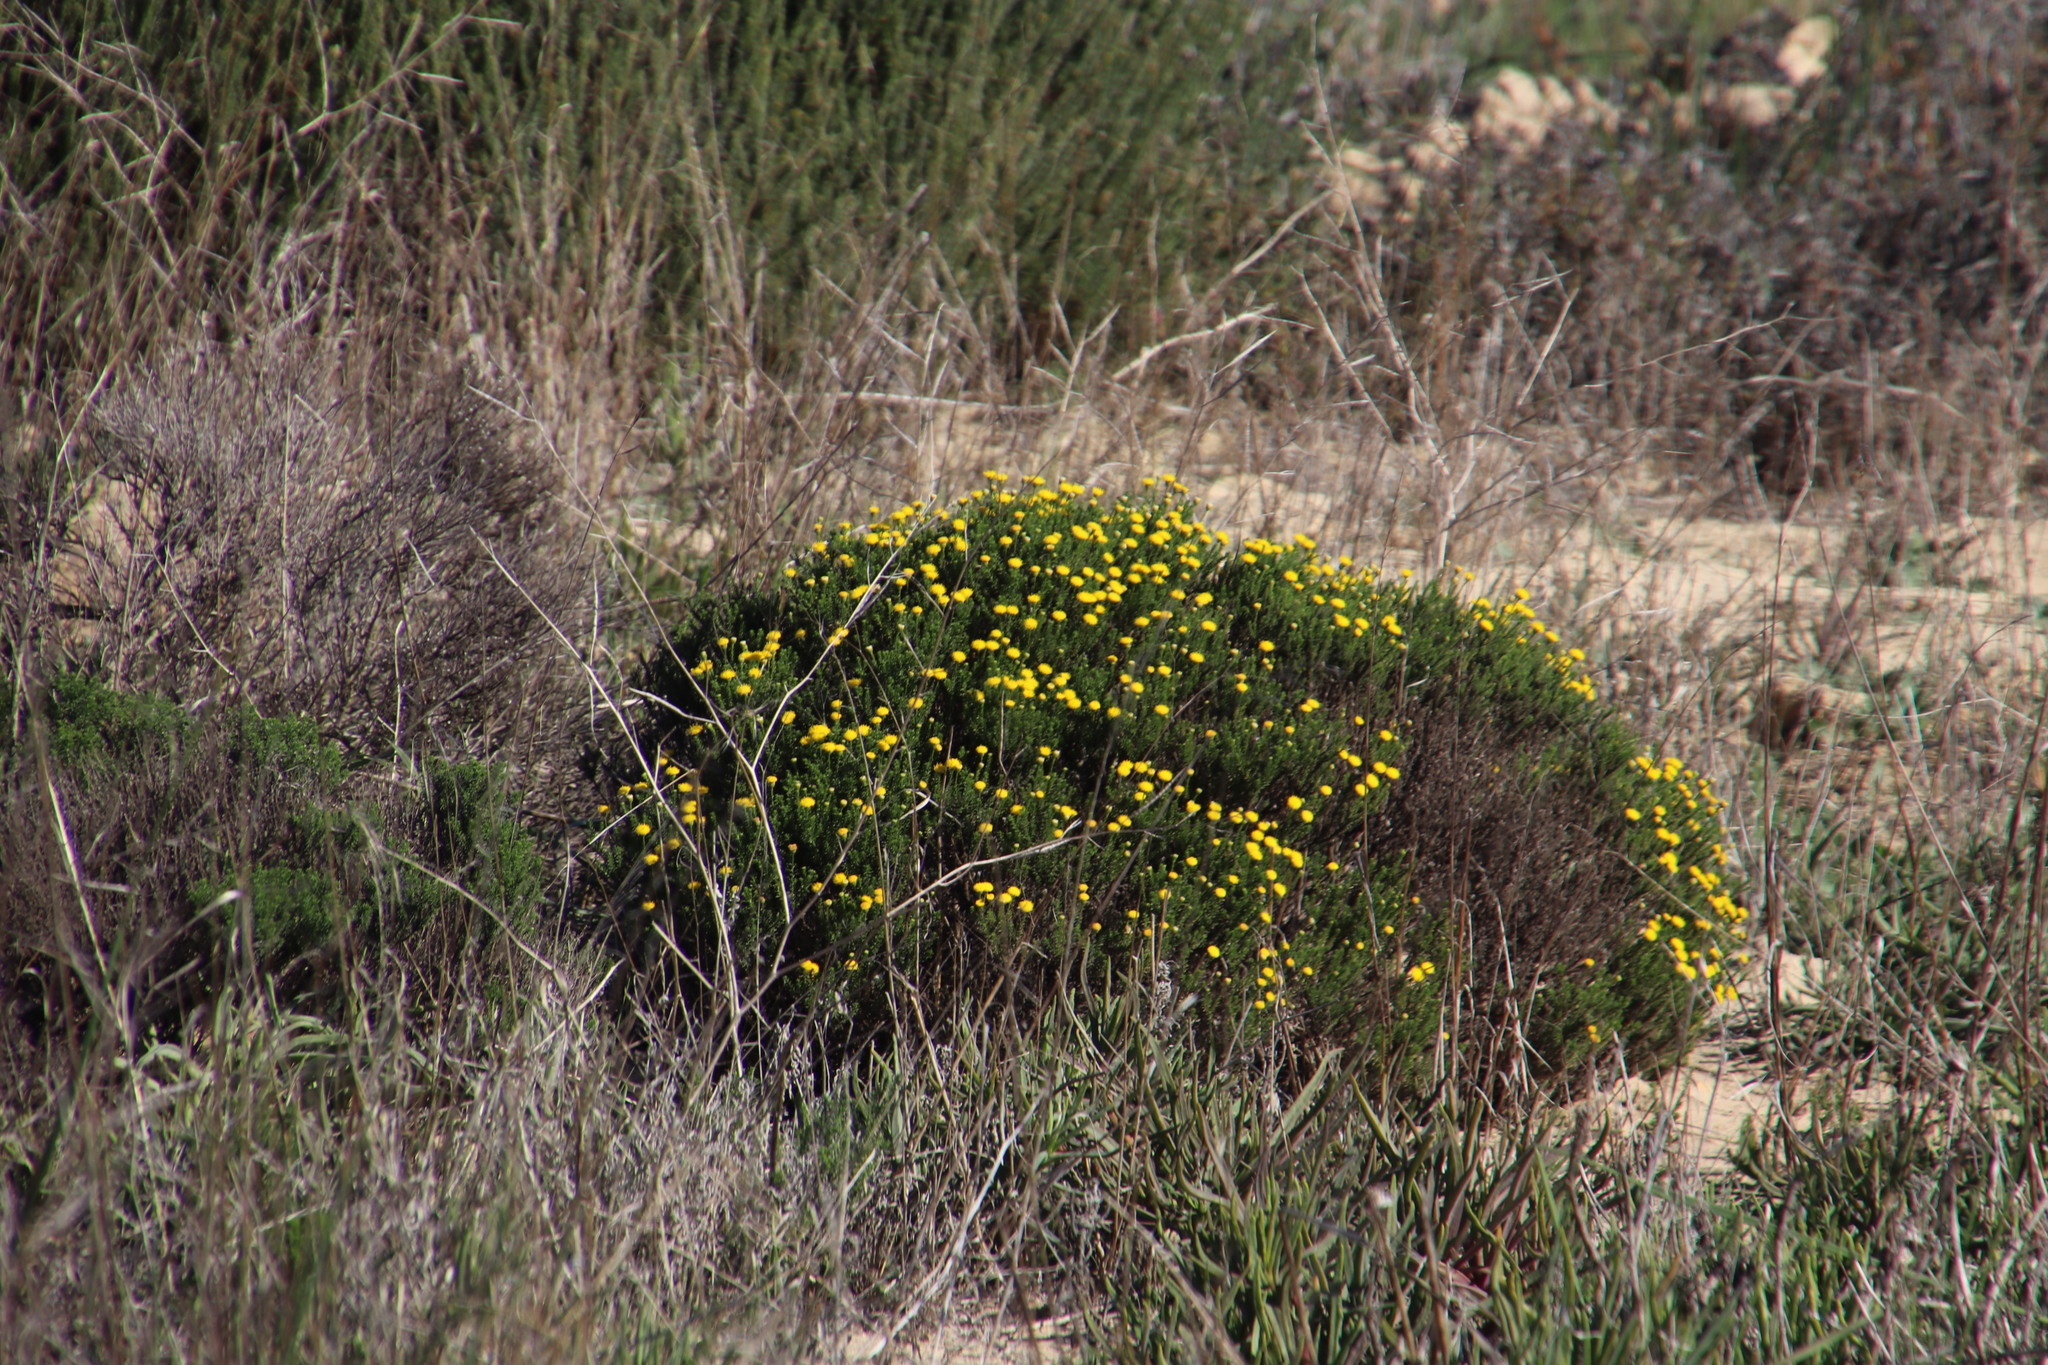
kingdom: Plantae
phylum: Tracheophyta
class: Magnoliopsida
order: Asterales
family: Asteraceae
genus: Chrysocoma
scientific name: Chrysocoma ciliata
